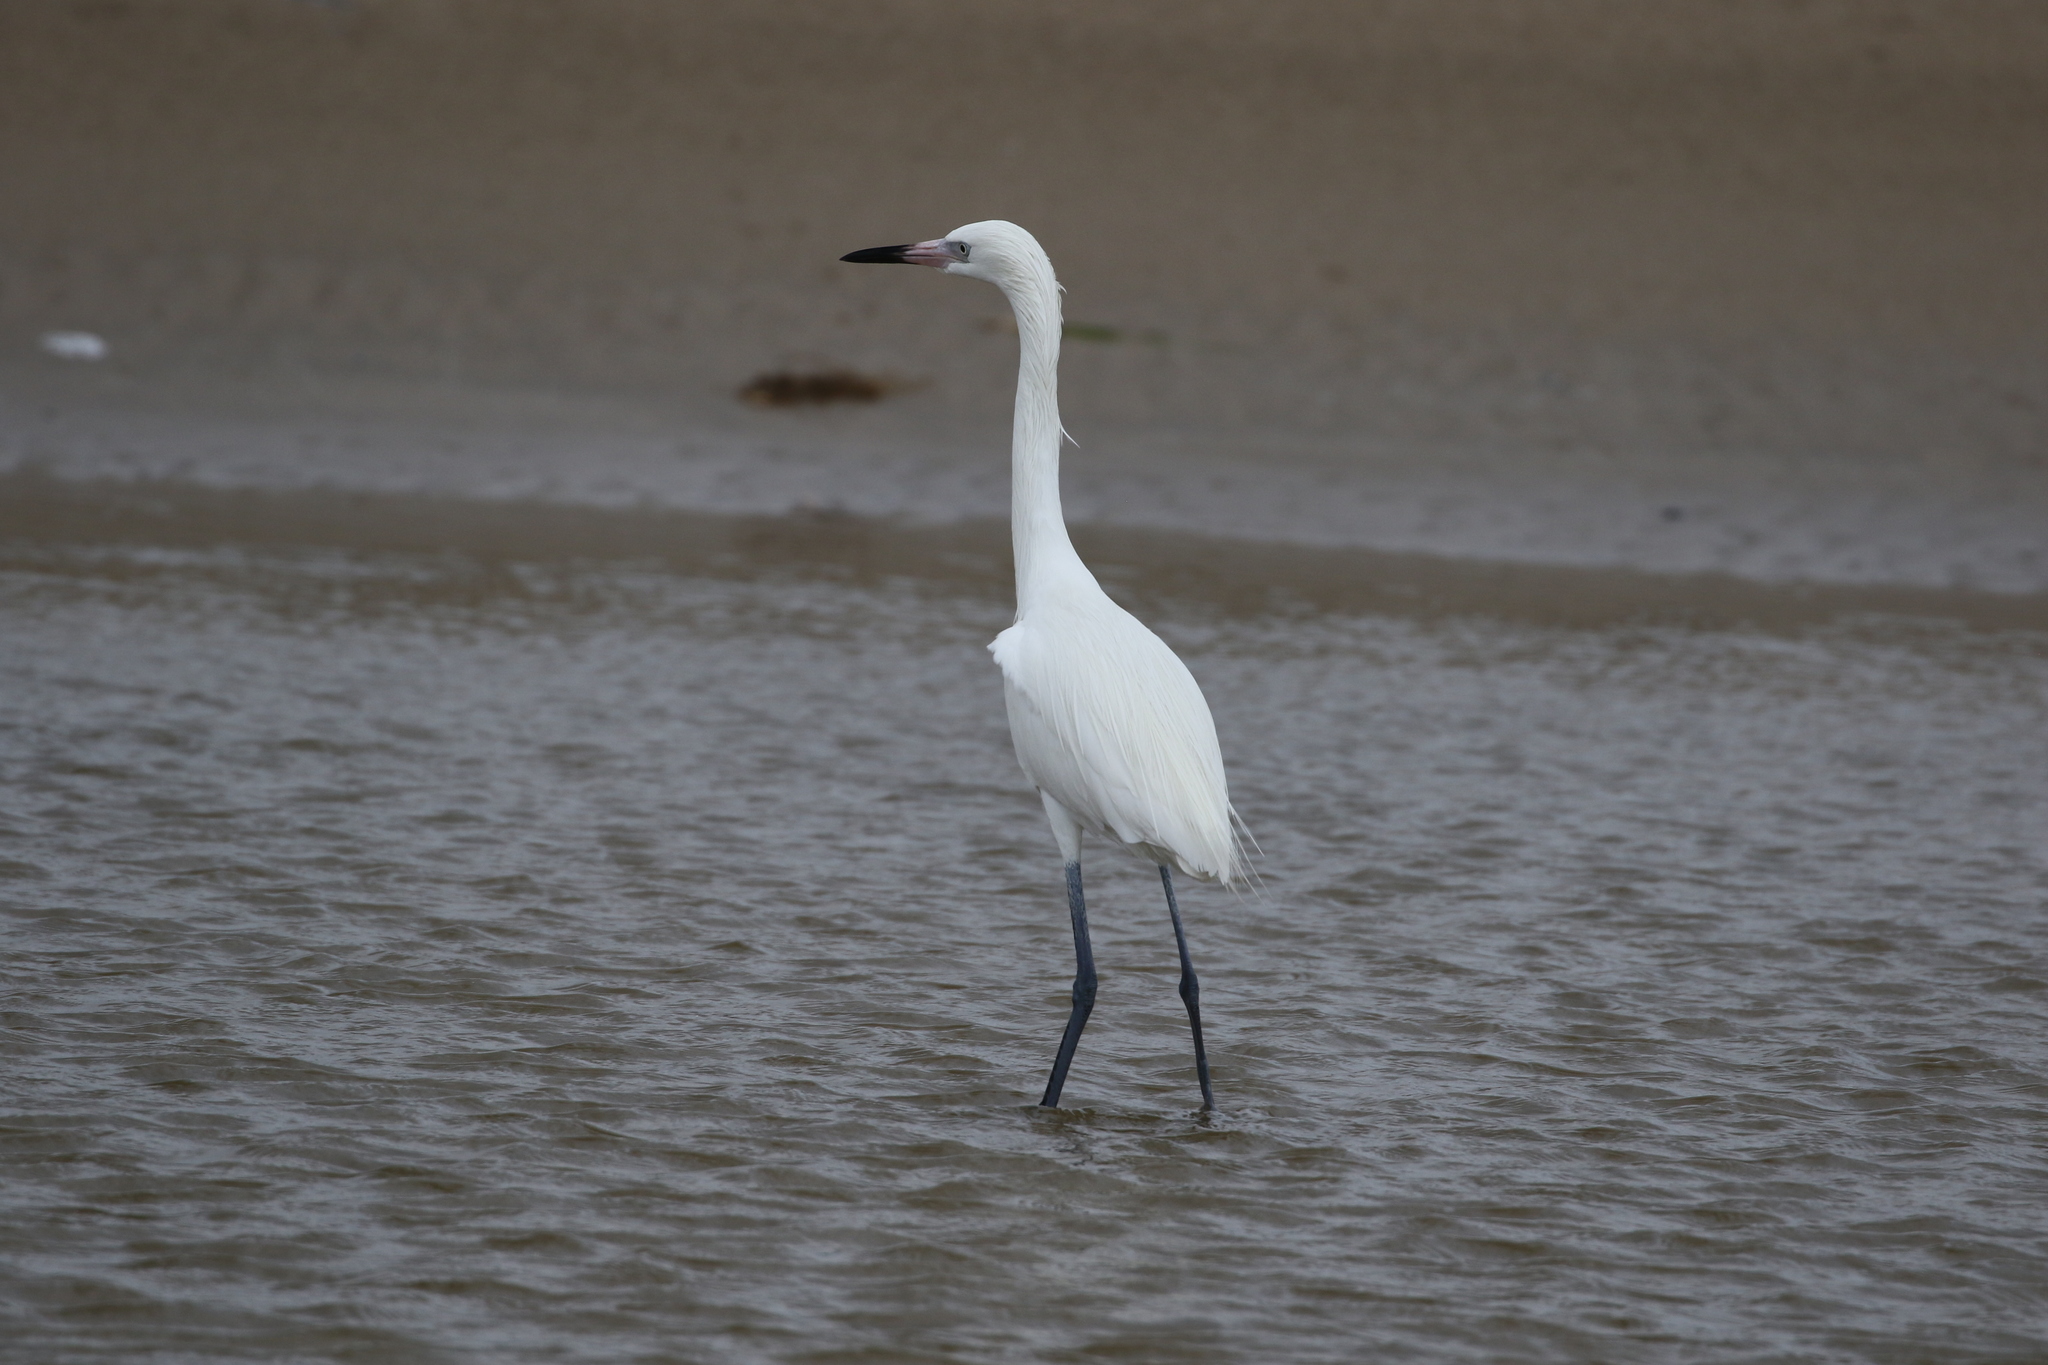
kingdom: Animalia
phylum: Chordata
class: Aves
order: Pelecaniformes
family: Ardeidae
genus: Egretta
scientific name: Egretta rufescens
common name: Reddish egret
